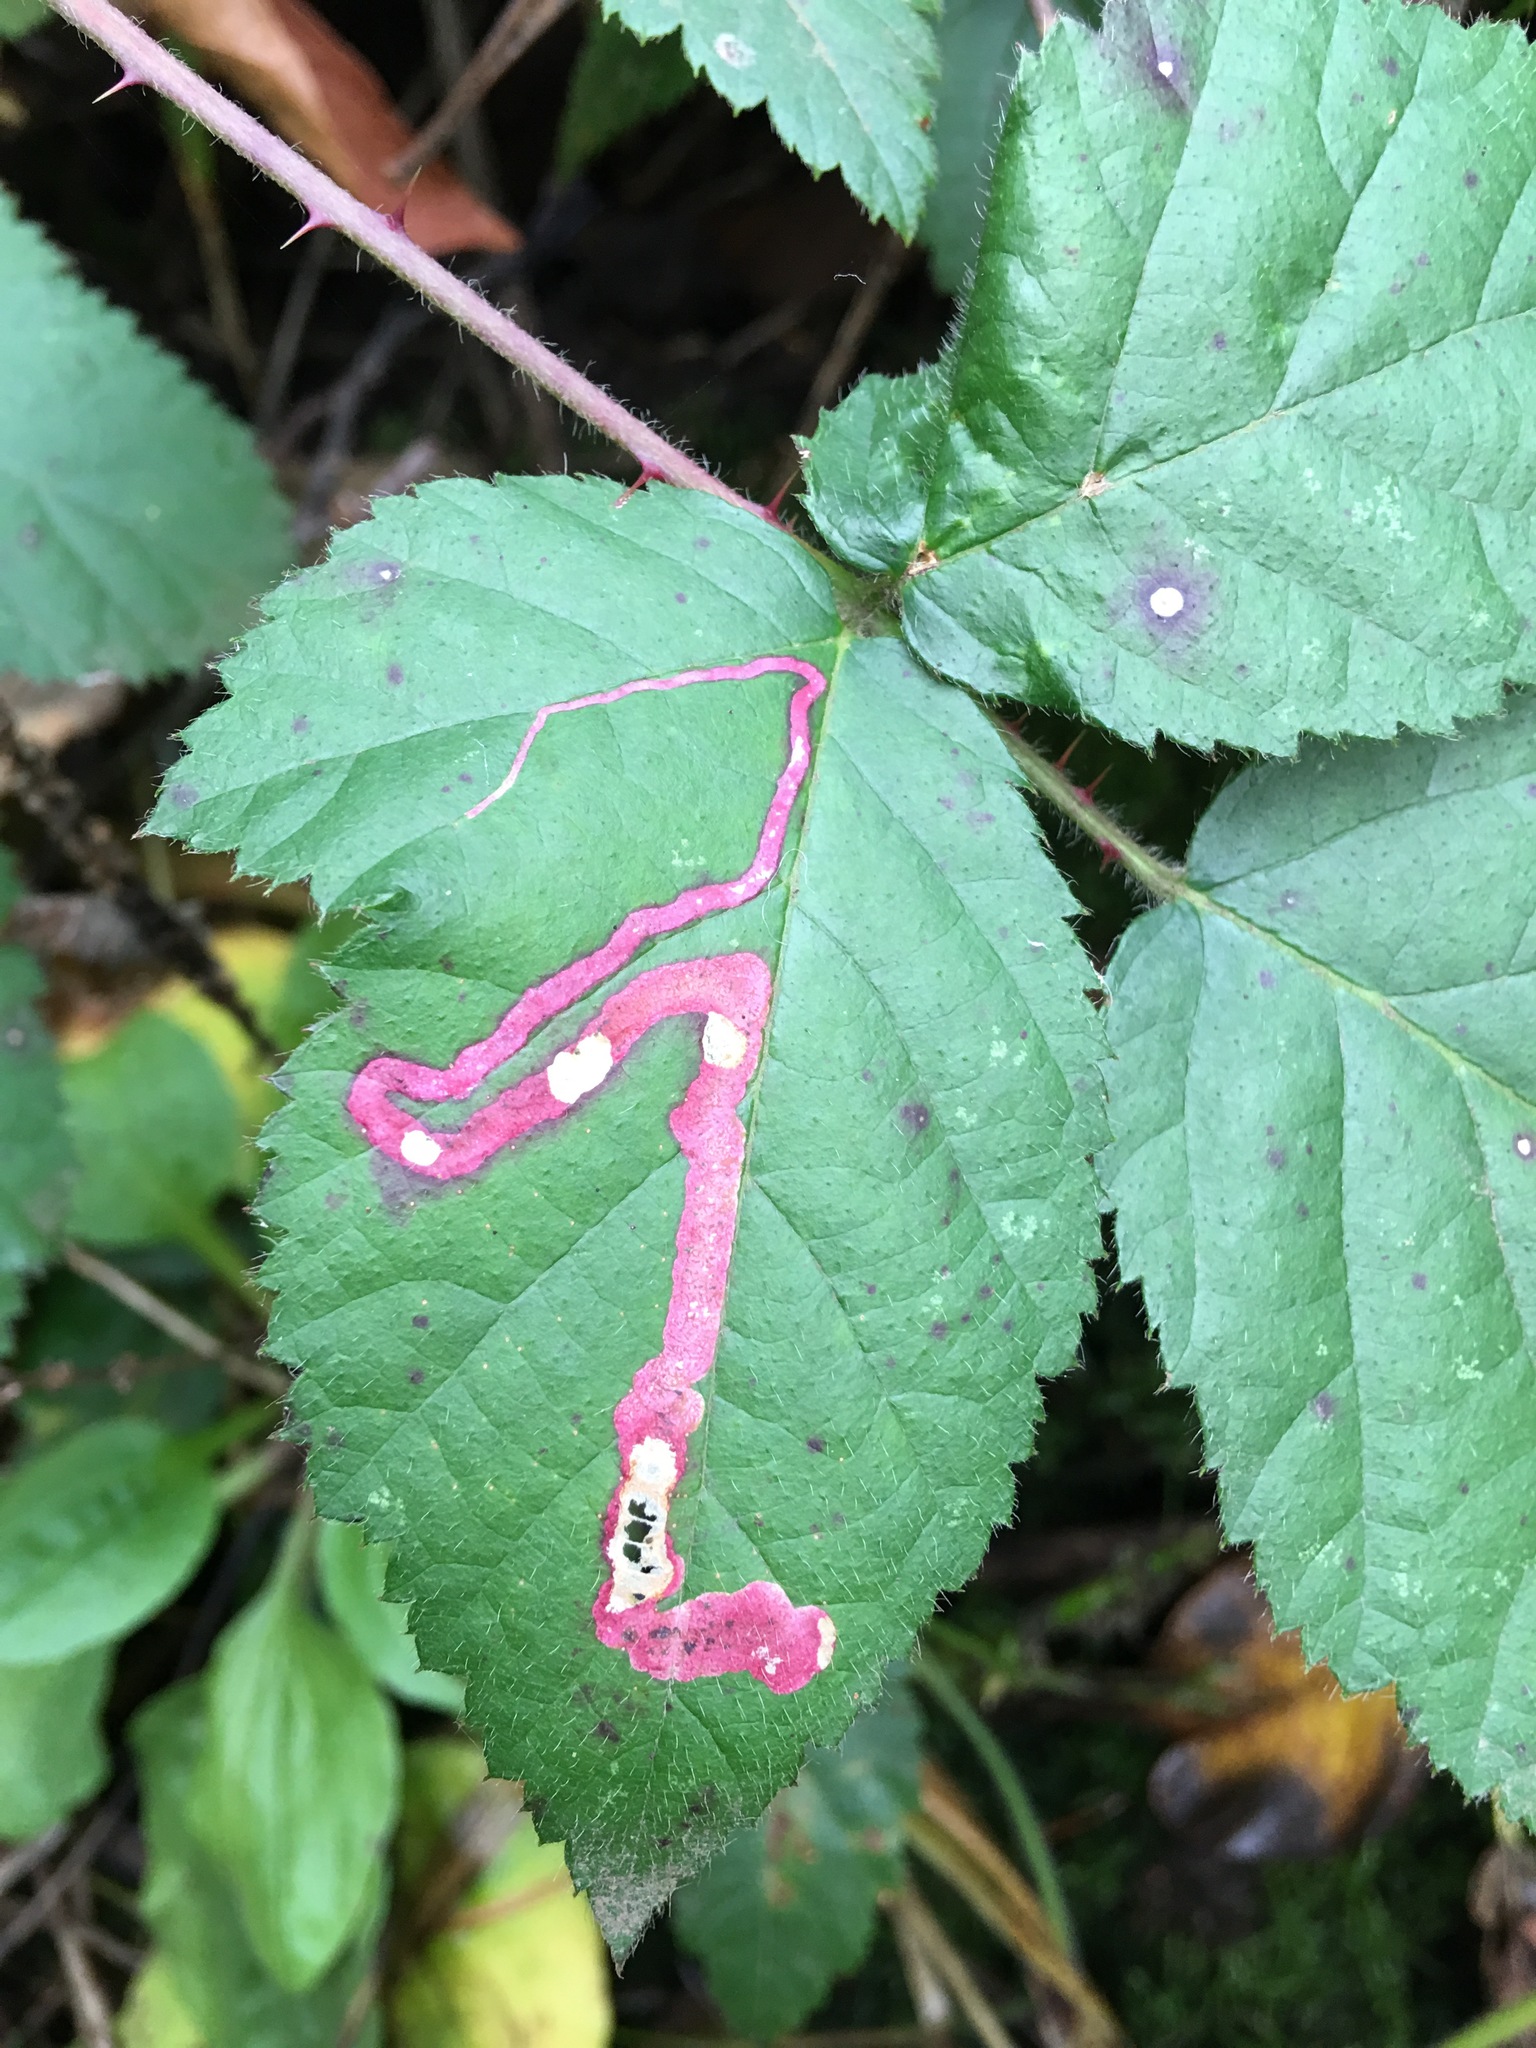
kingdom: Animalia
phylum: Arthropoda
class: Insecta
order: Diptera
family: Agromyzidae
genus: Agromyza
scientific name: Agromyza vockerothi
